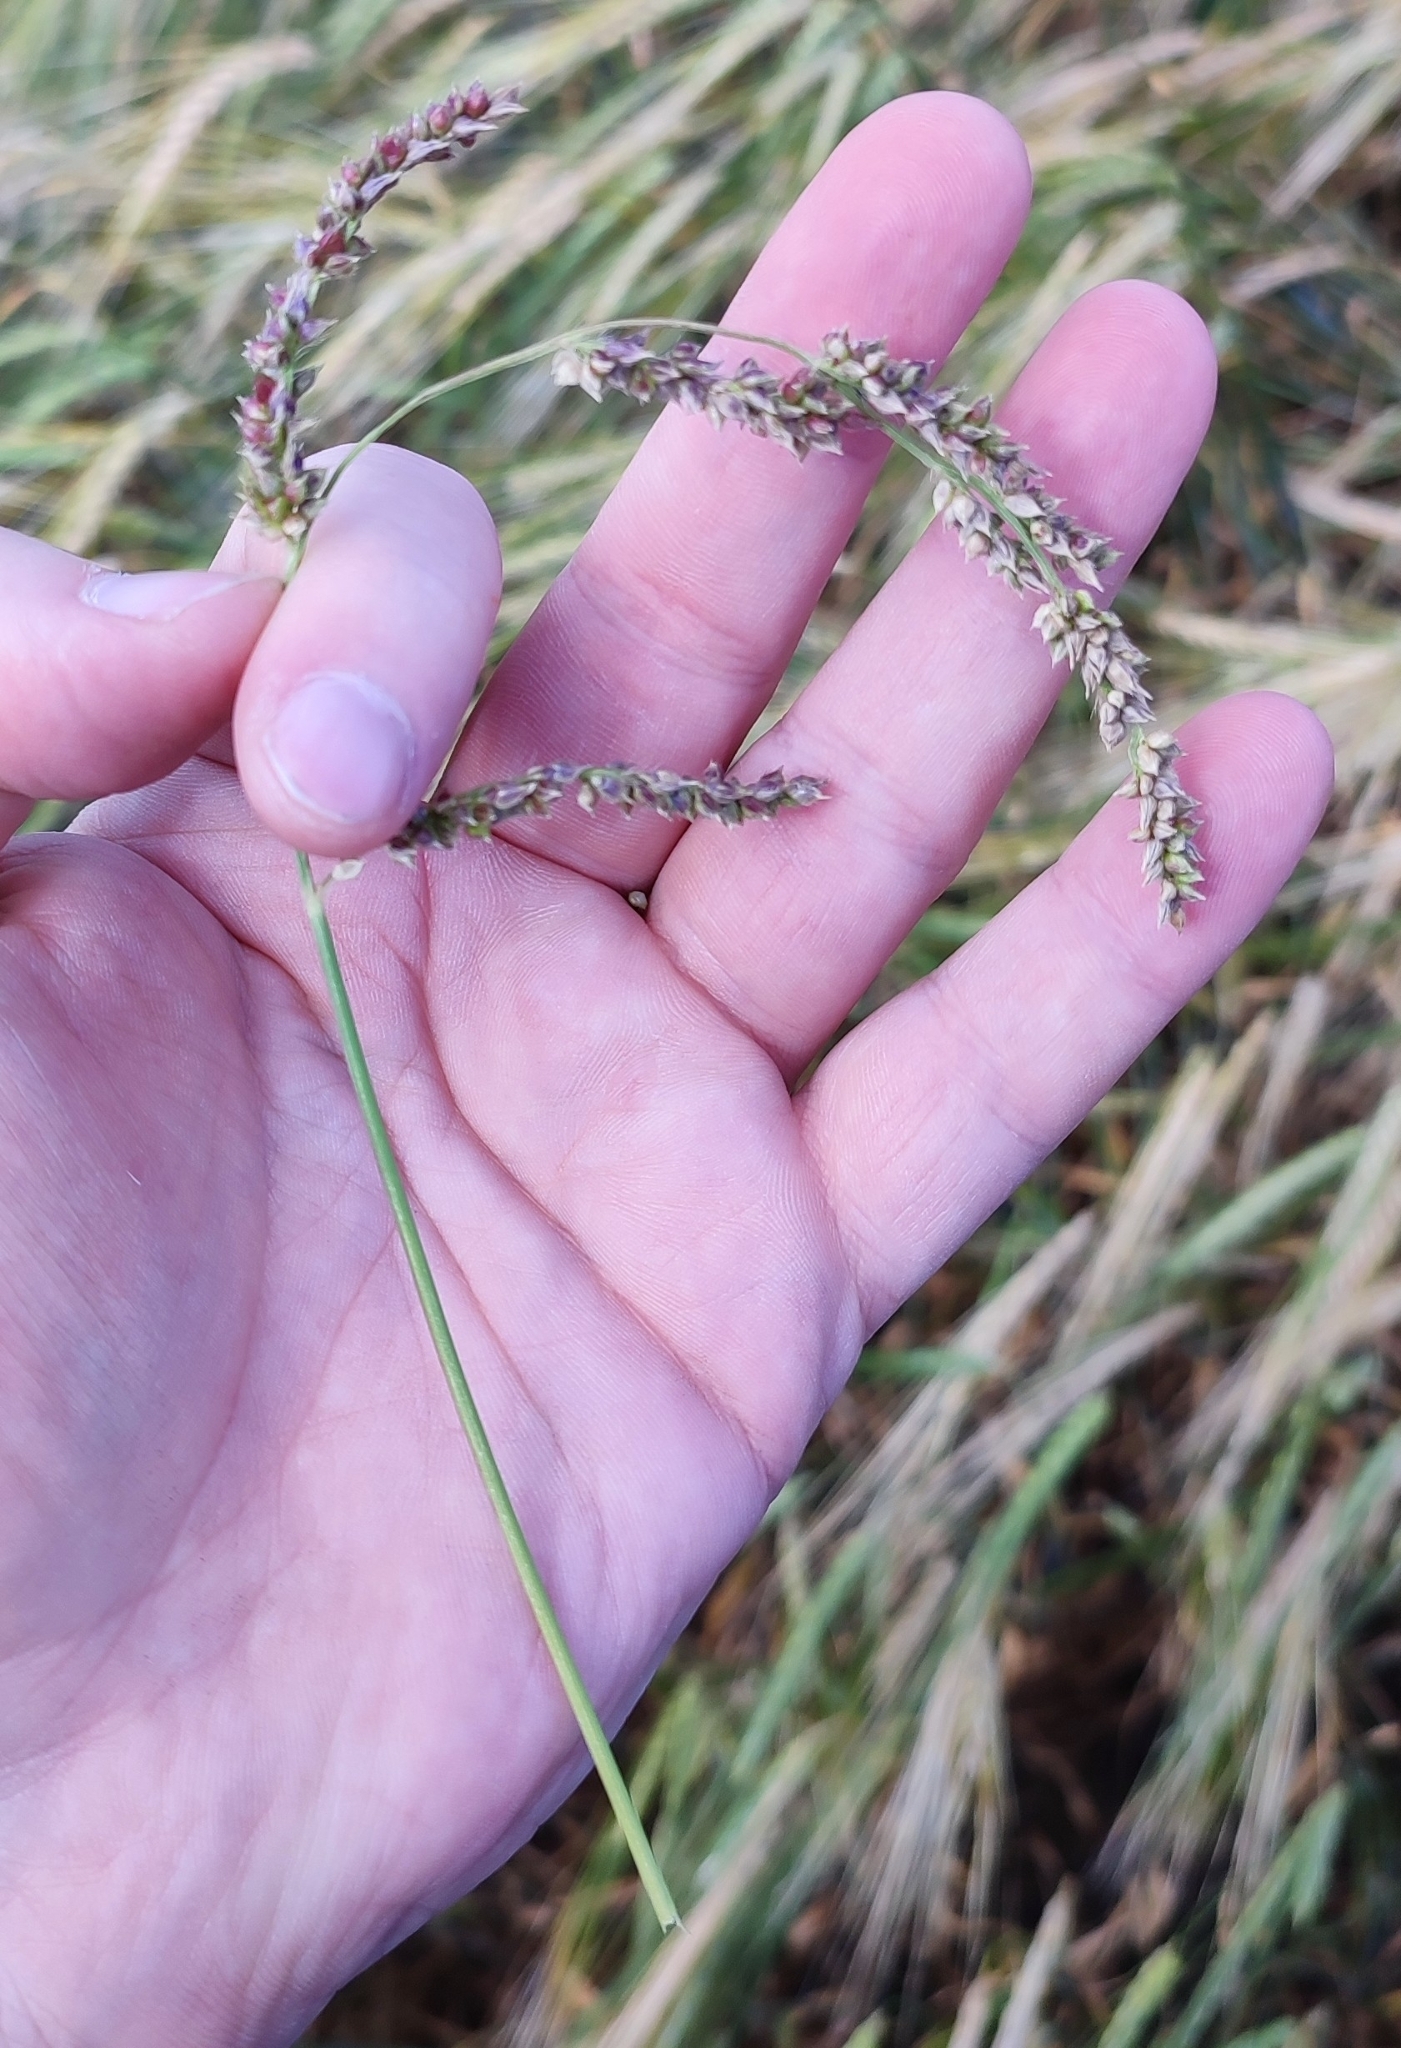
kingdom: Plantae
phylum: Tracheophyta
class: Liliopsida
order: Poales
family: Poaceae
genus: Echinochloa
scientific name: Echinochloa crus-galli
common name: Cockspur
